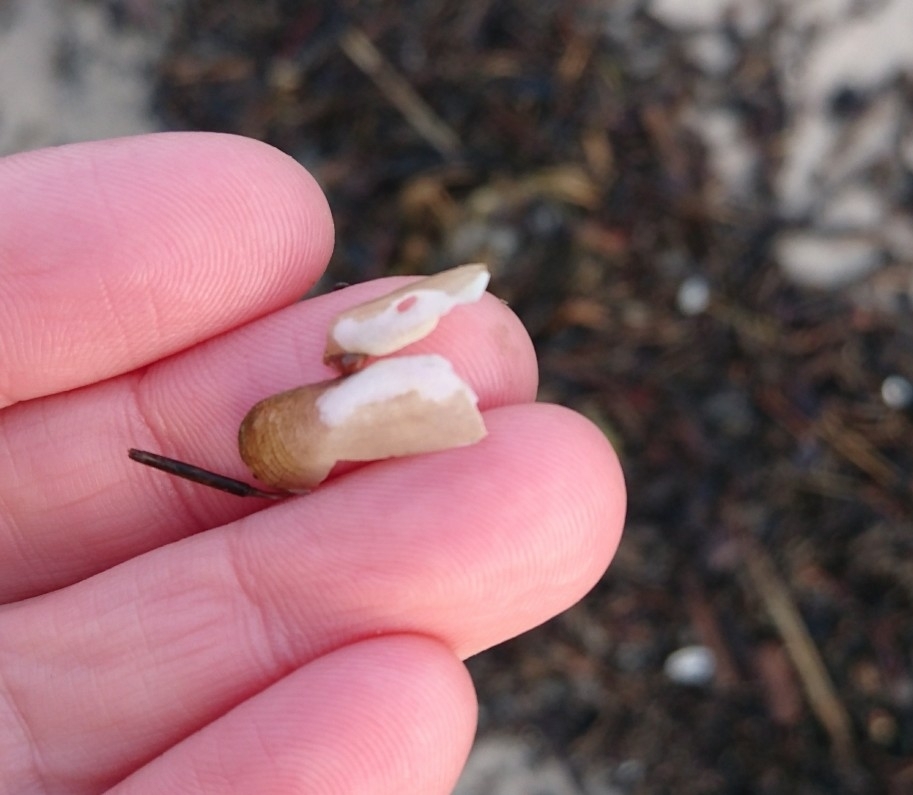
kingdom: Animalia
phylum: Mollusca
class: Bivalvia
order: Cardiida
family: Solecurtidae
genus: Tagelus
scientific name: Tagelus plebeius
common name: Stout tagelus
